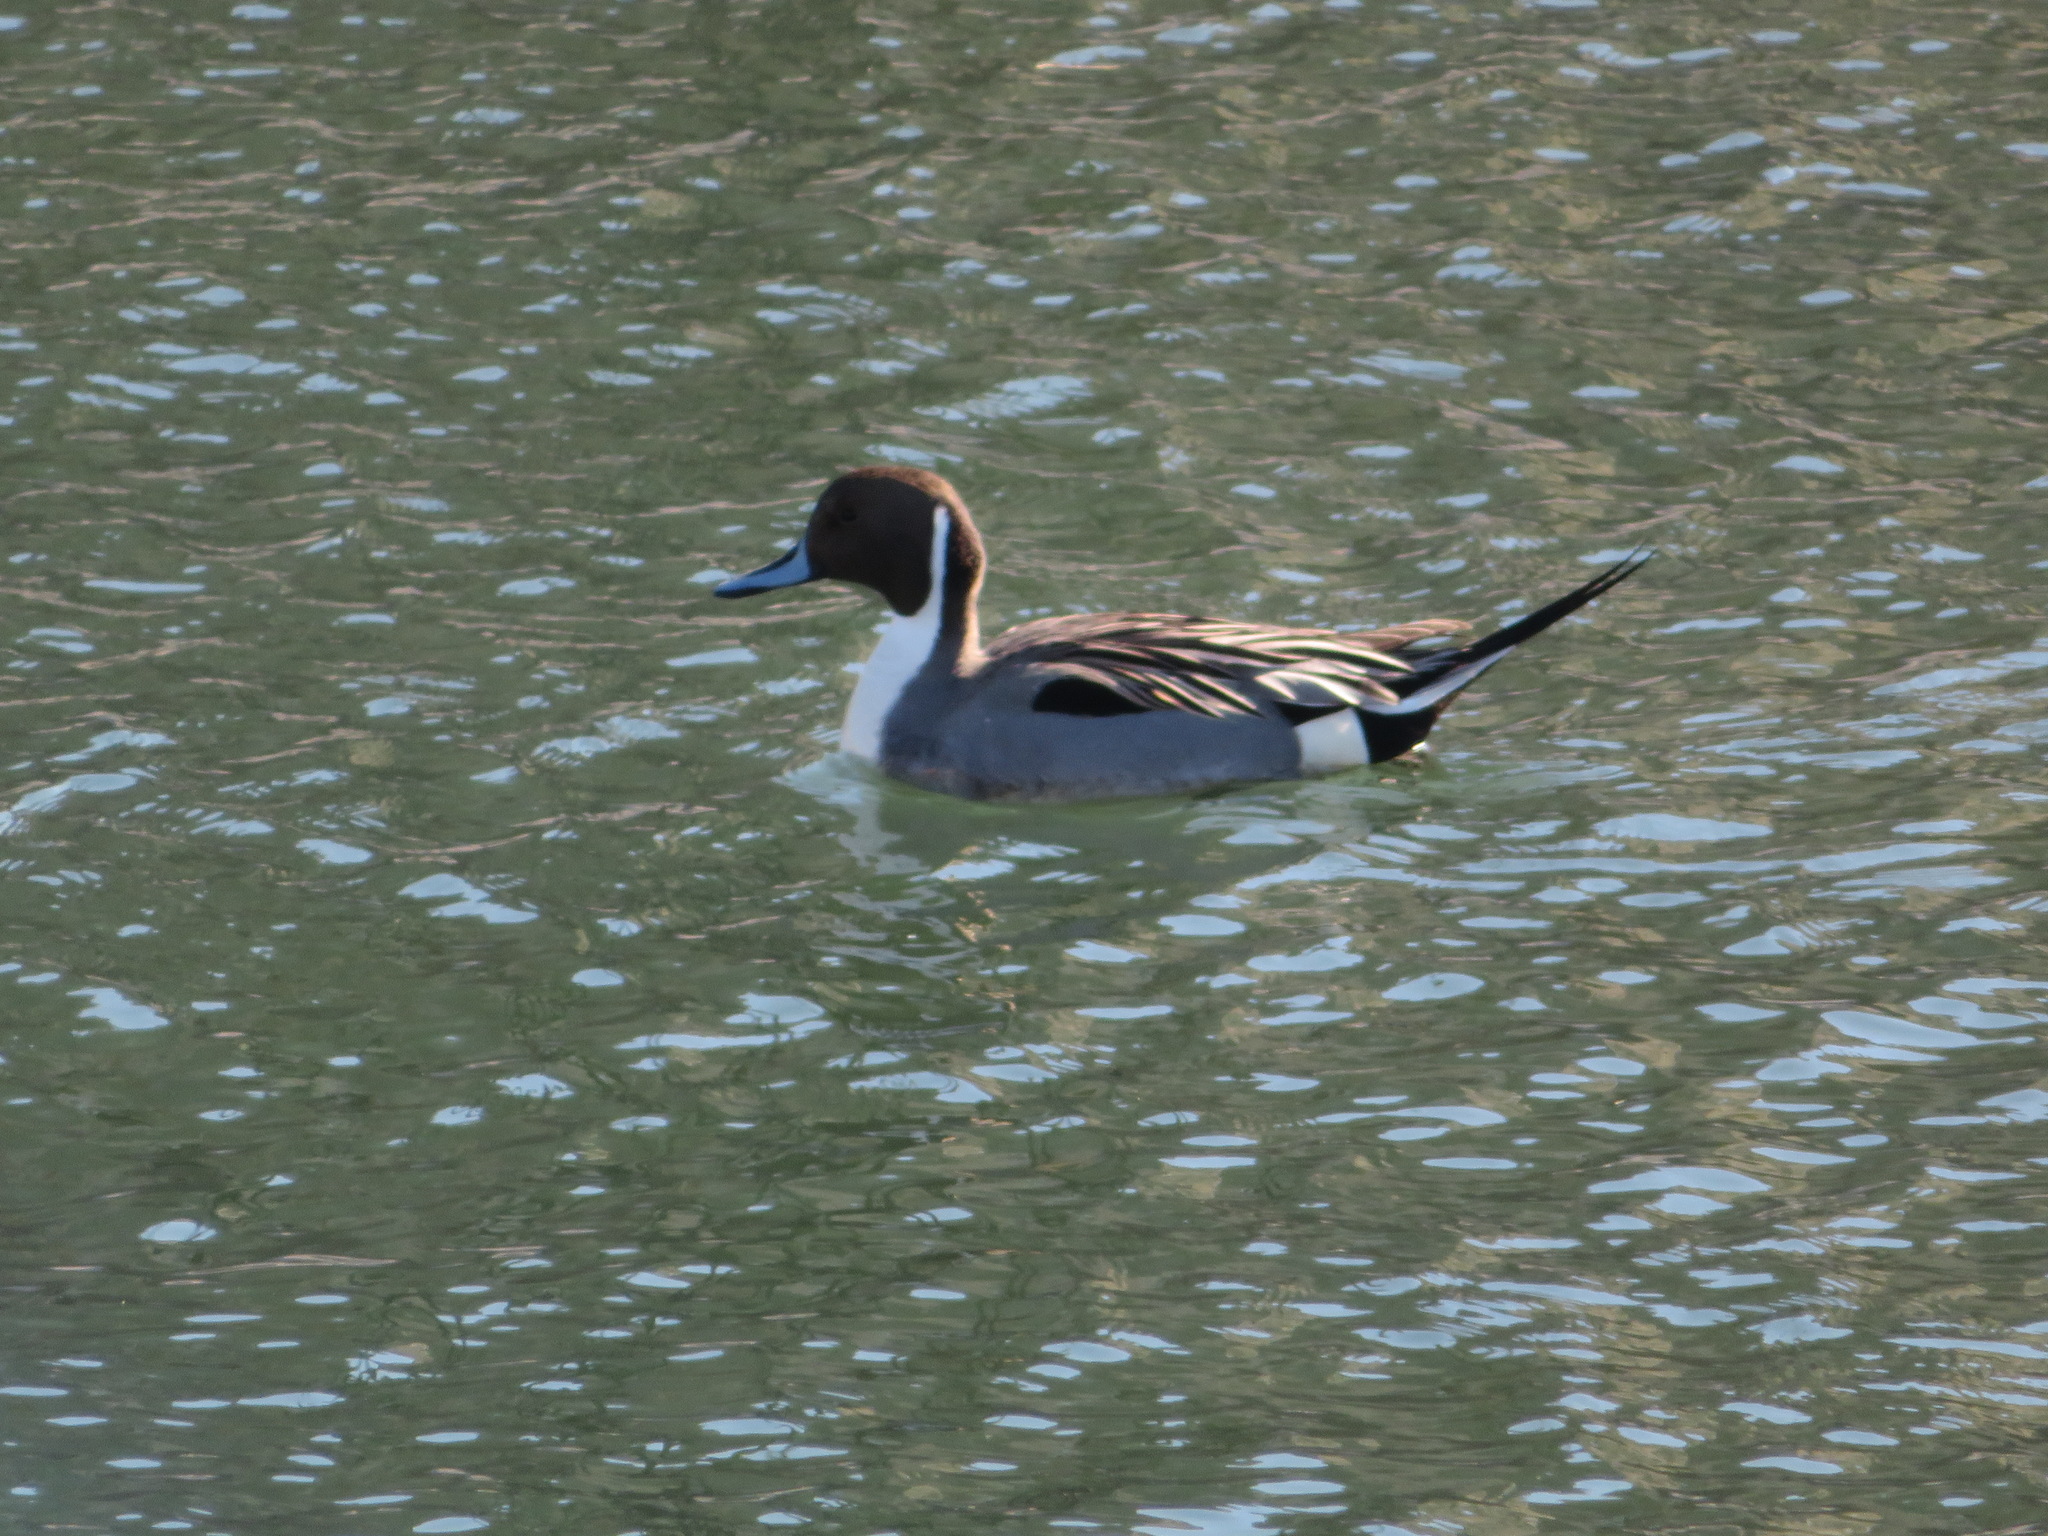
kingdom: Animalia
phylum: Chordata
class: Aves
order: Anseriformes
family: Anatidae
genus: Anas
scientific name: Anas acuta
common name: Northern pintail
